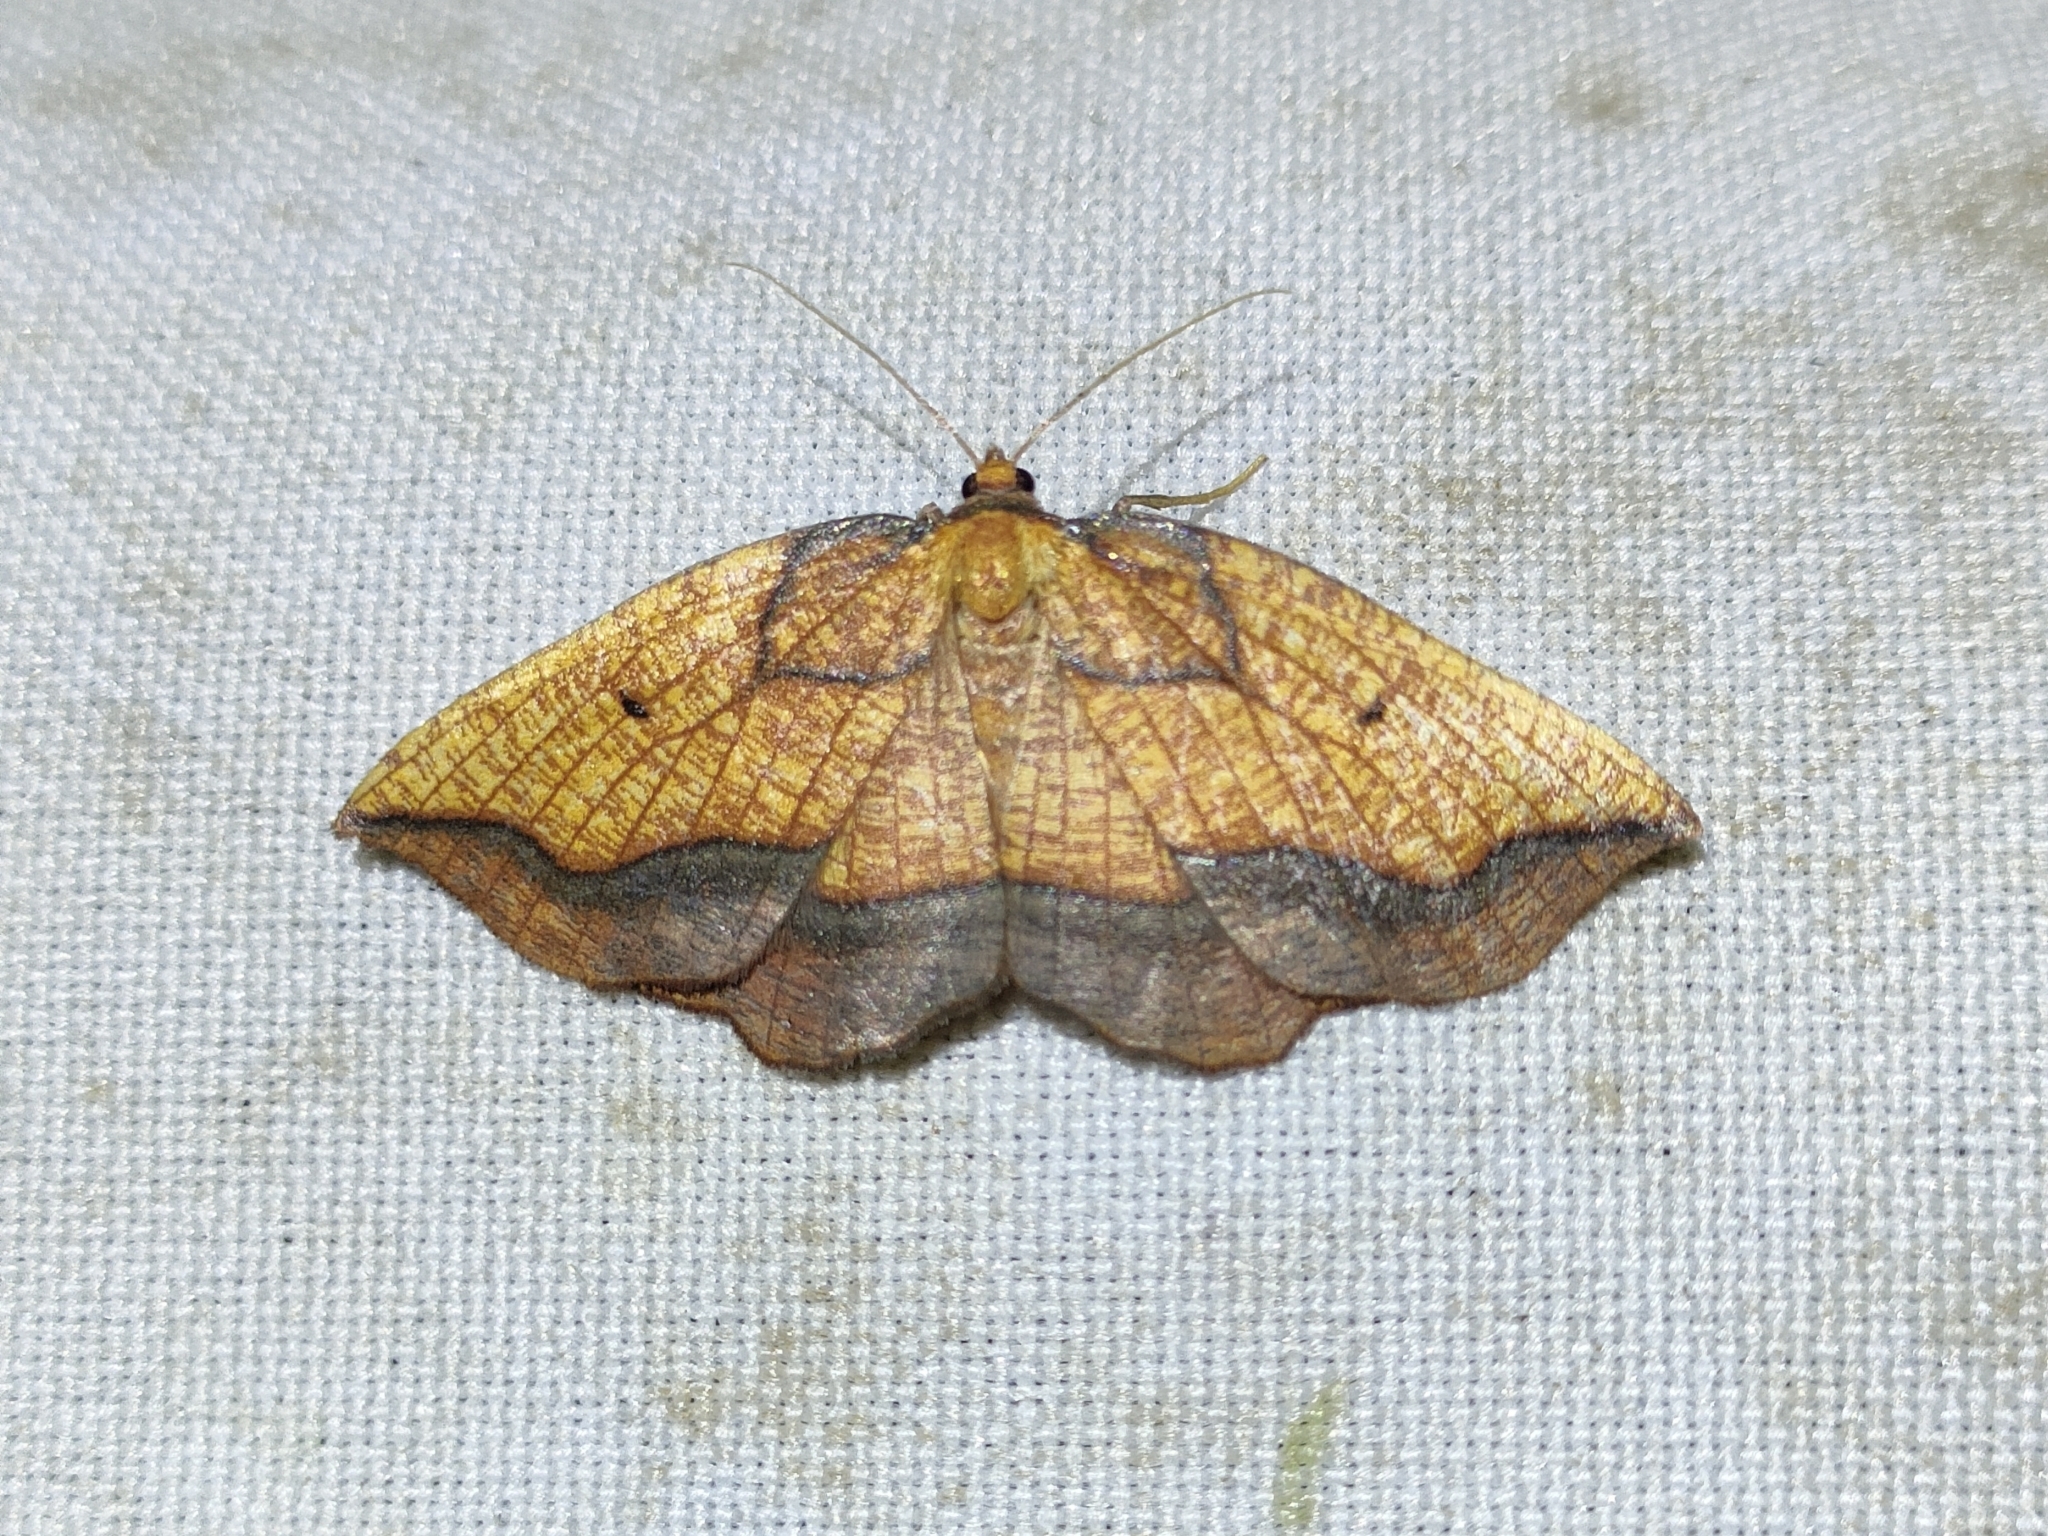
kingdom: Animalia
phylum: Arthropoda
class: Insecta
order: Lepidoptera
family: Geometridae
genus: Epione
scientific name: Epione repandaria
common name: Bordered beauty
